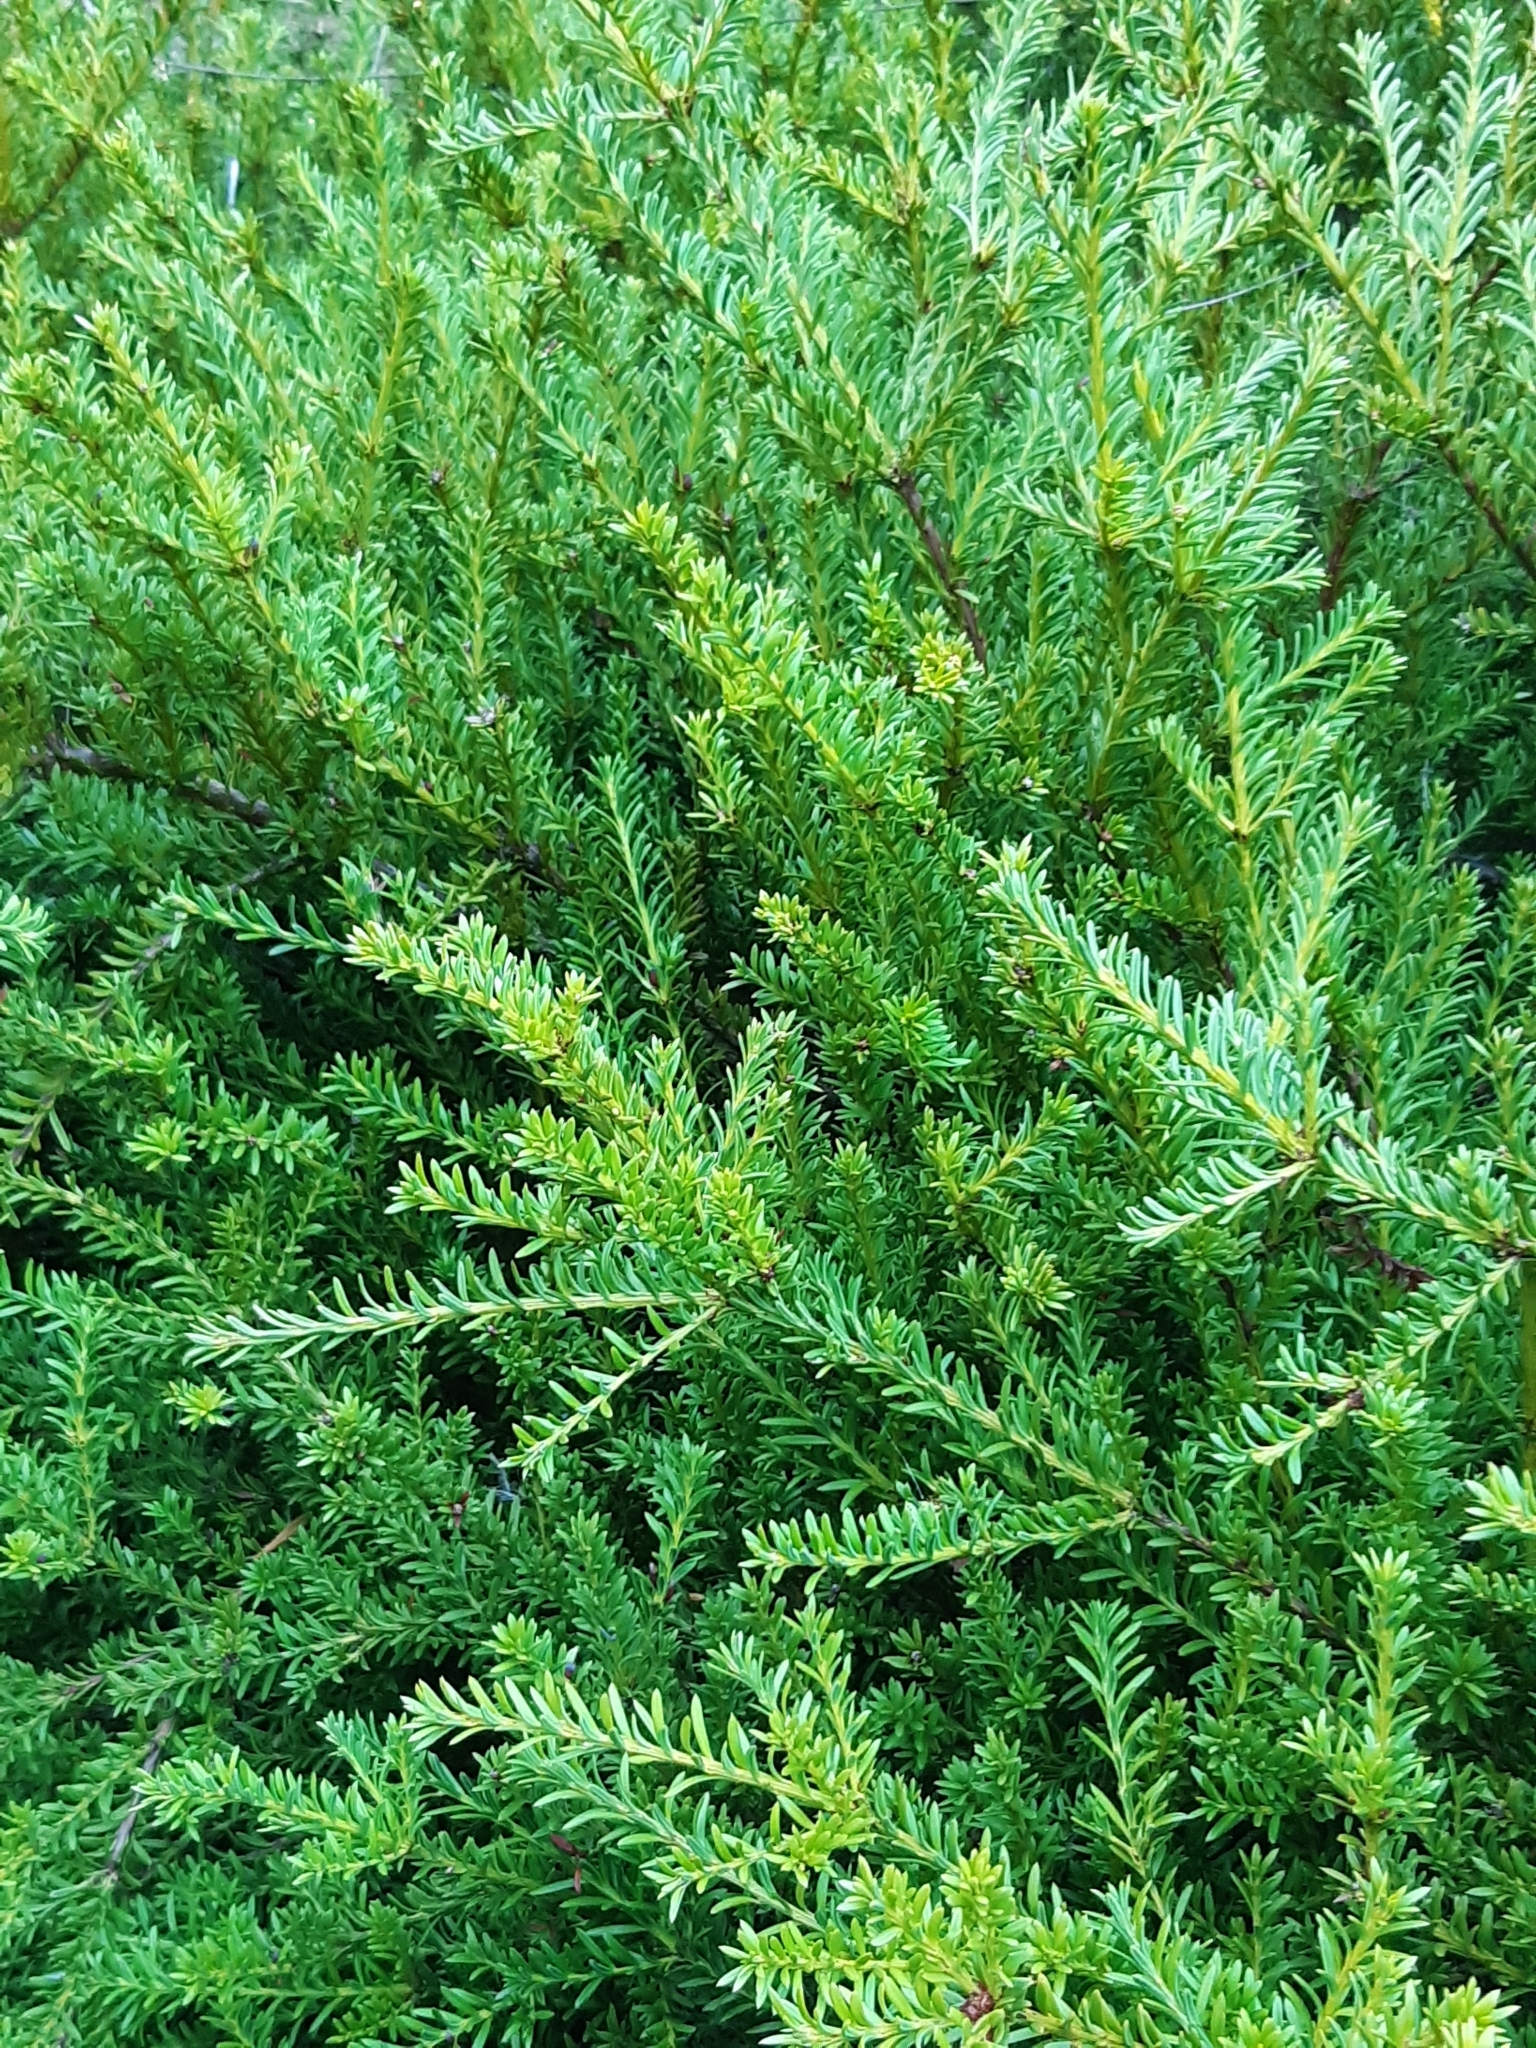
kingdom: Plantae
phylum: Tracheophyta
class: Pinopsida
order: Pinales
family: Podocarpaceae
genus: Podocarpus
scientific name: Podocarpus nivalis
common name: Alpine totara
